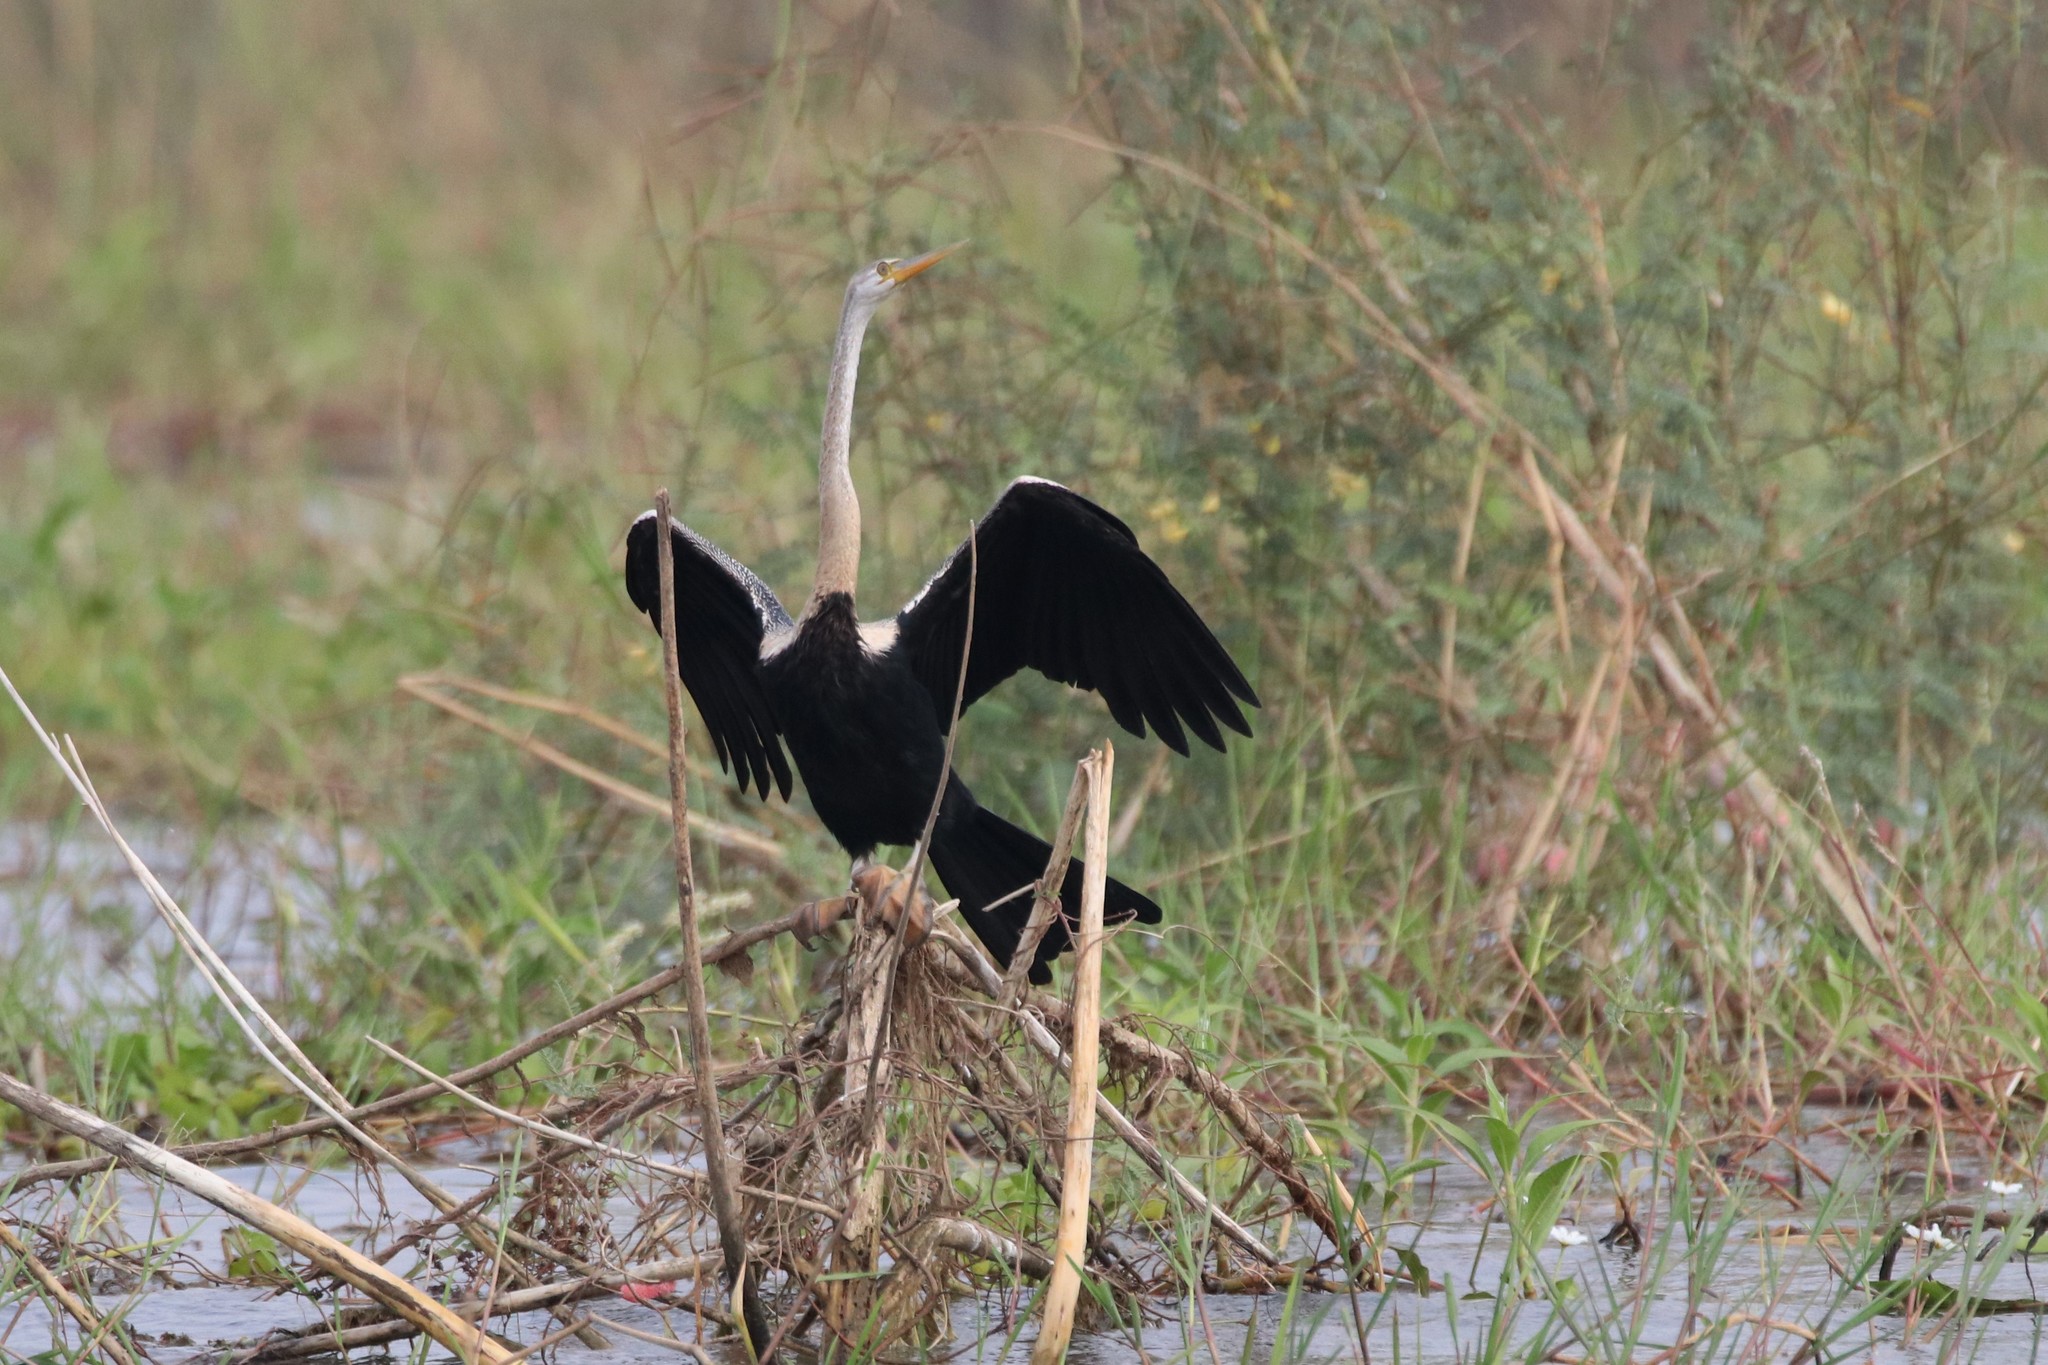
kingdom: Animalia
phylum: Chordata
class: Aves
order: Suliformes
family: Anhingidae
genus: Anhinga
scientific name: Anhinga melanogaster
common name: Oriental darter
